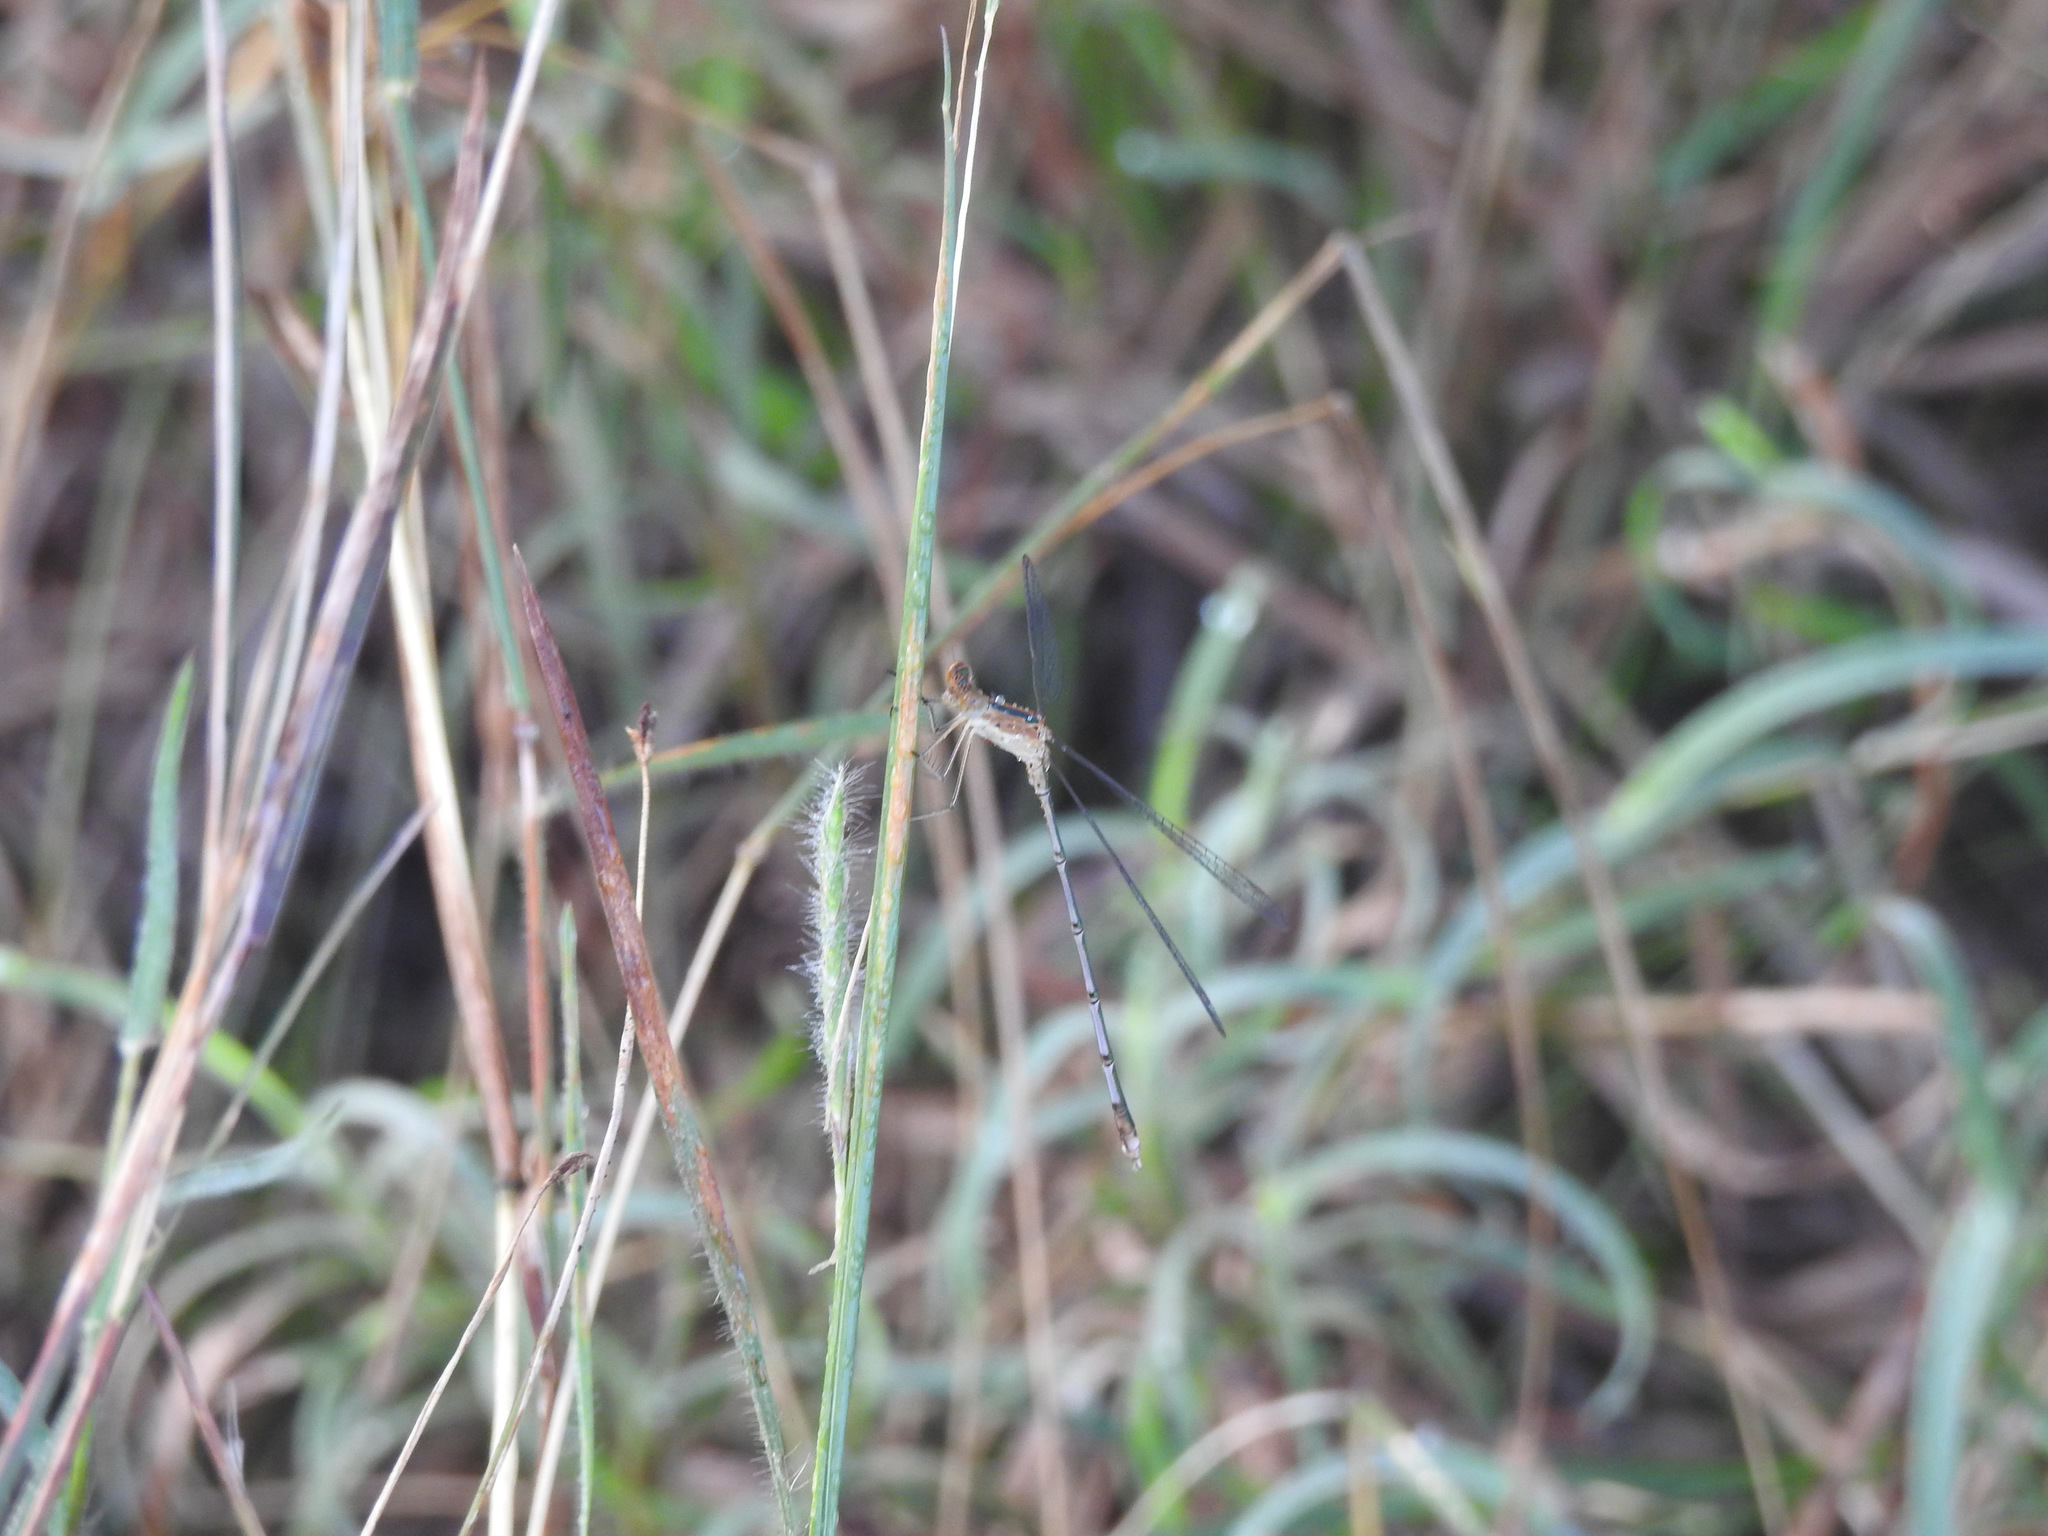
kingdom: Animalia
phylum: Arthropoda
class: Insecta
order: Odonata
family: Lestidae
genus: Lestes
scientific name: Lestes elatus
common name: Emerald spreadwing
